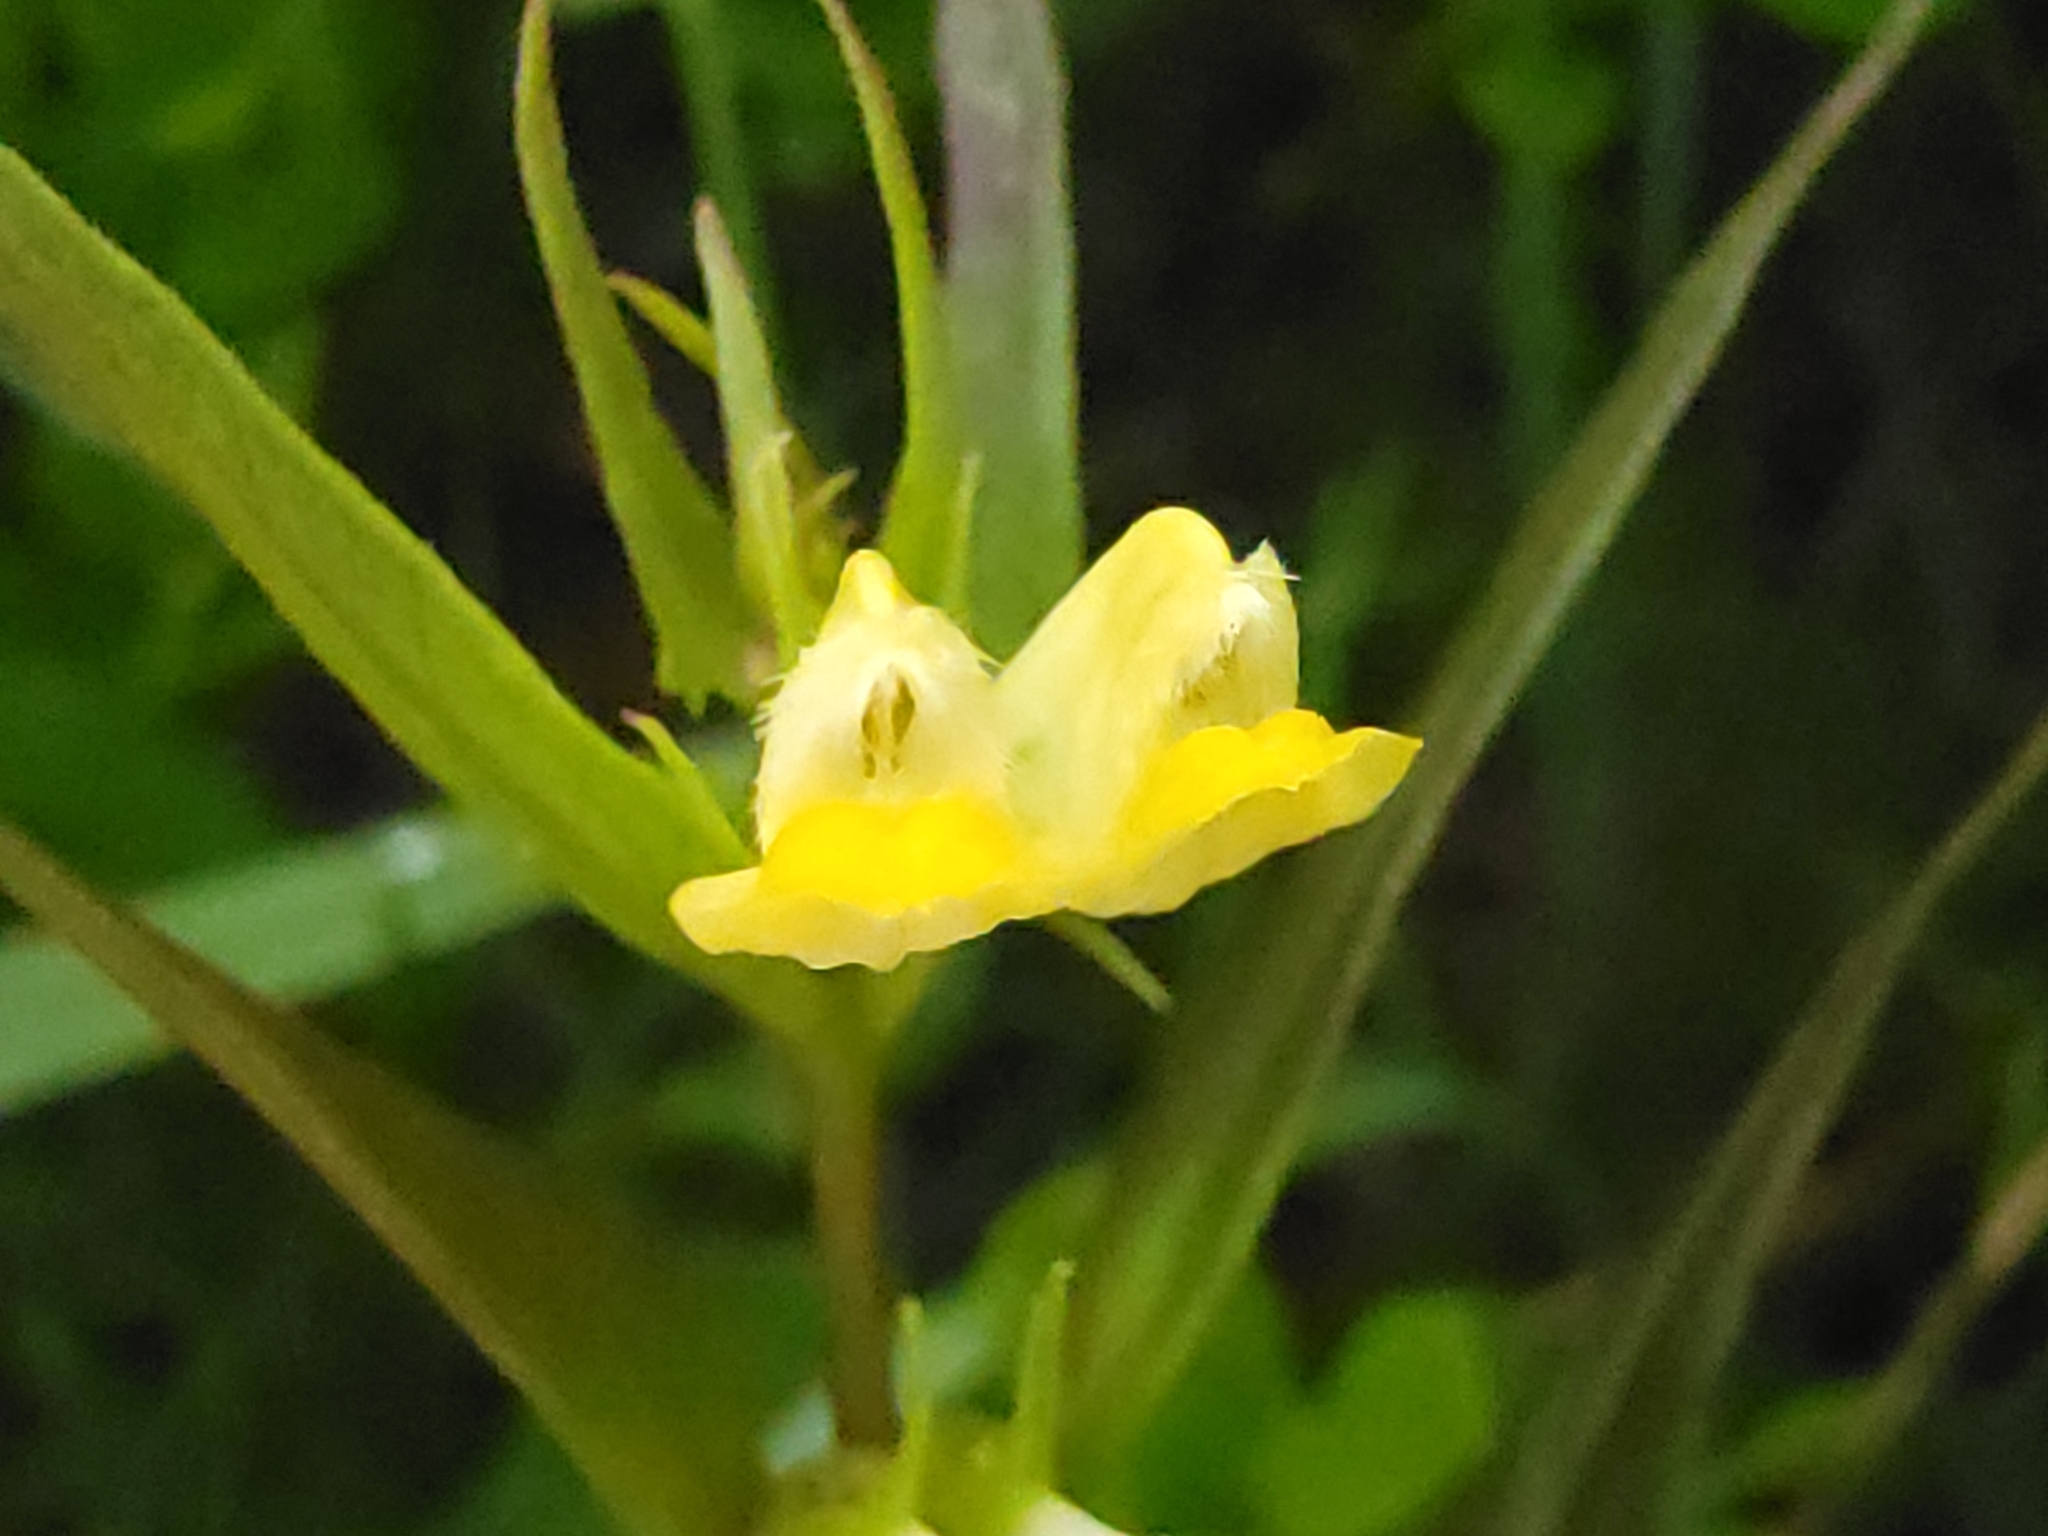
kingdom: Plantae
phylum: Tracheophyta
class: Magnoliopsida
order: Lamiales
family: Orobanchaceae
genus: Melampyrum
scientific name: Melampyrum pratense
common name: Common cow-wheat
